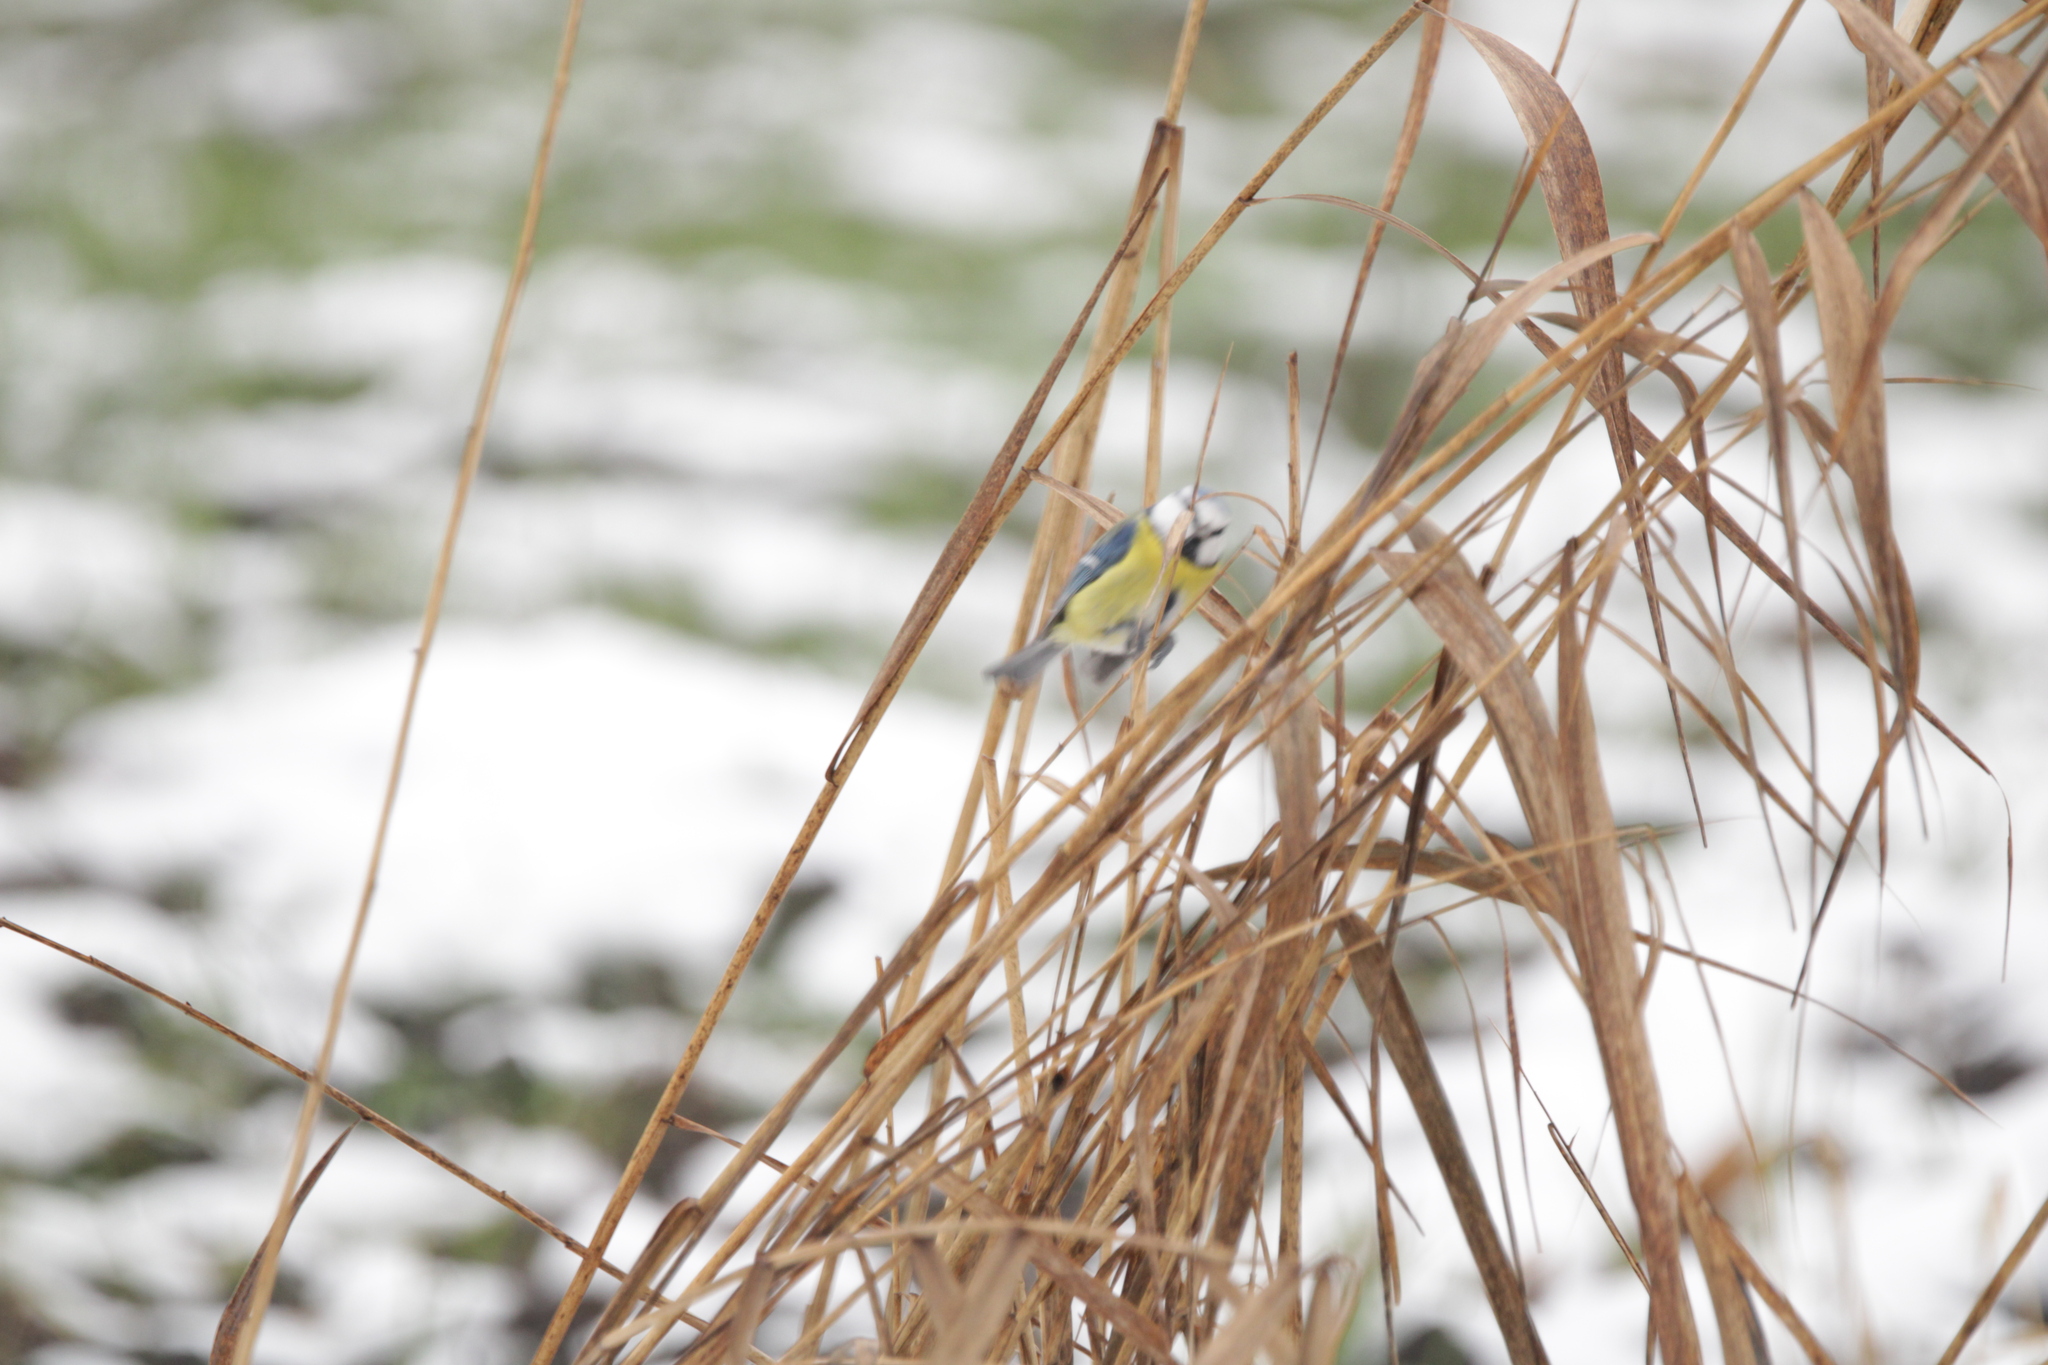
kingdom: Animalia
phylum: Chordata
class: Aves
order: Passeriformes
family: Paridae
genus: Cyanistes
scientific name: Cyanistes caeruleus
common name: Eurasian blue tit
